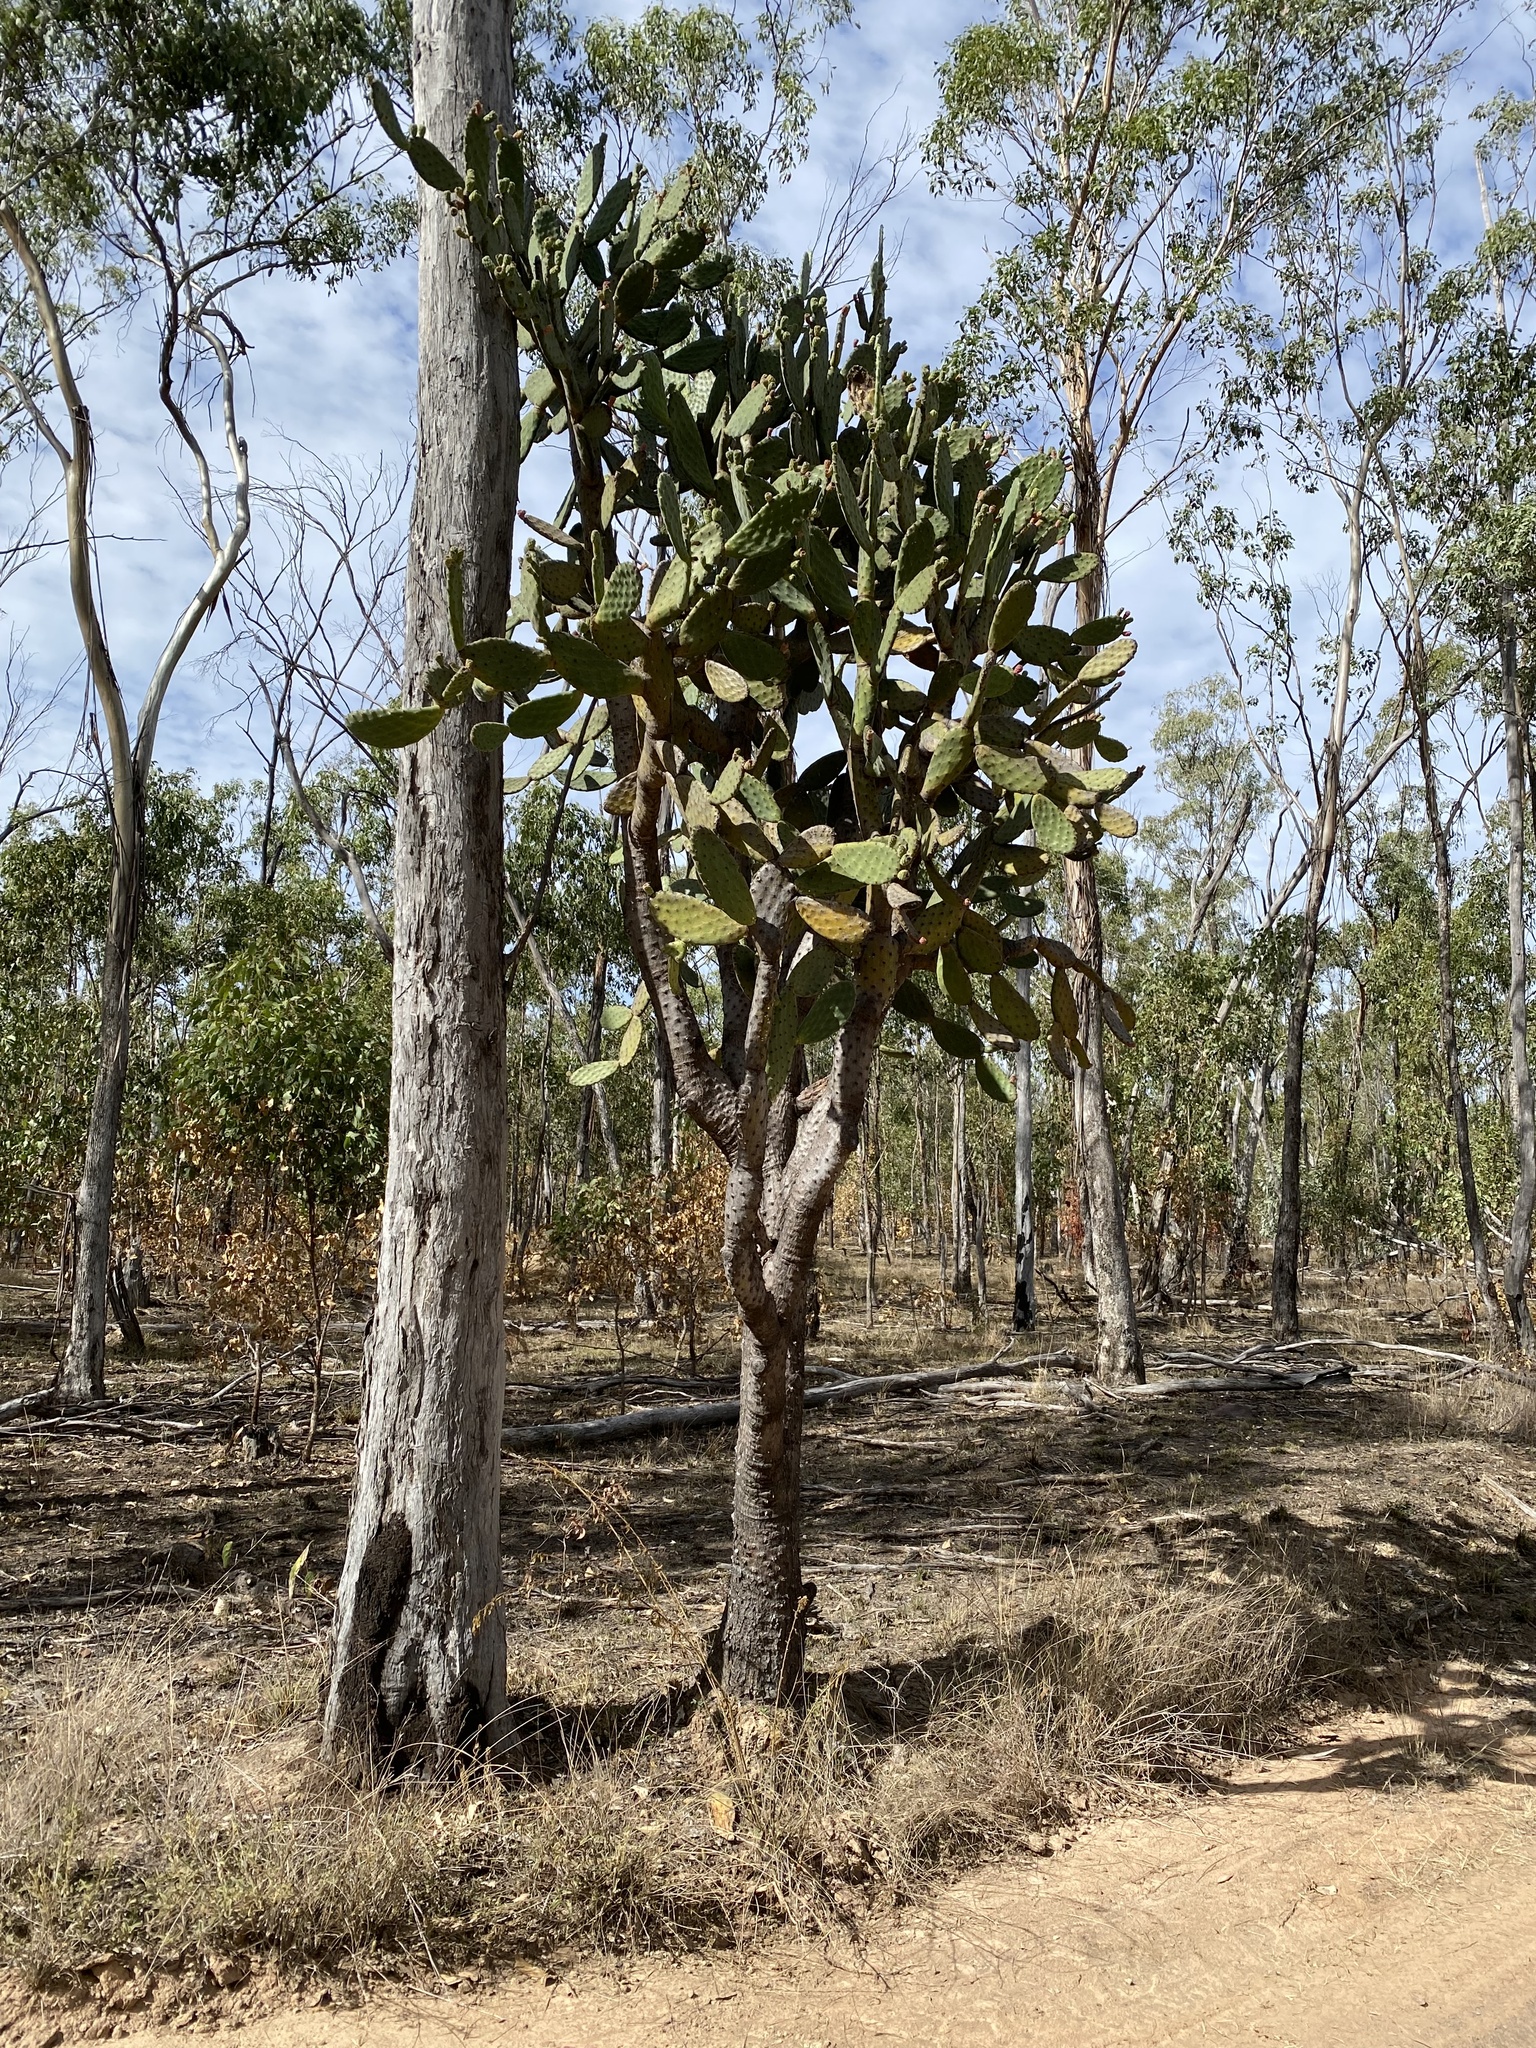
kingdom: Plantae
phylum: Tracheophyta
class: Magnoliopsida
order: Caryophyllales
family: Cactaceae
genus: Opuntia
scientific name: Opuntia tomentosa
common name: Woollyjoint pricklypear
